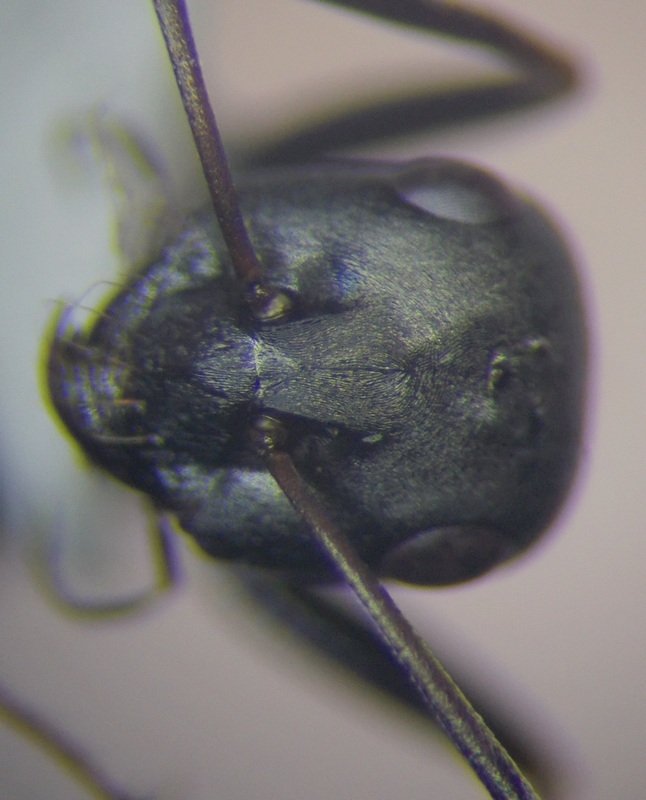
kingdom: Animalia
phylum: Arthropoda
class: Insecta
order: Hymenoptera
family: Formicidae
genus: Cataglyphis
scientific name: Cataglyphis aenescens
